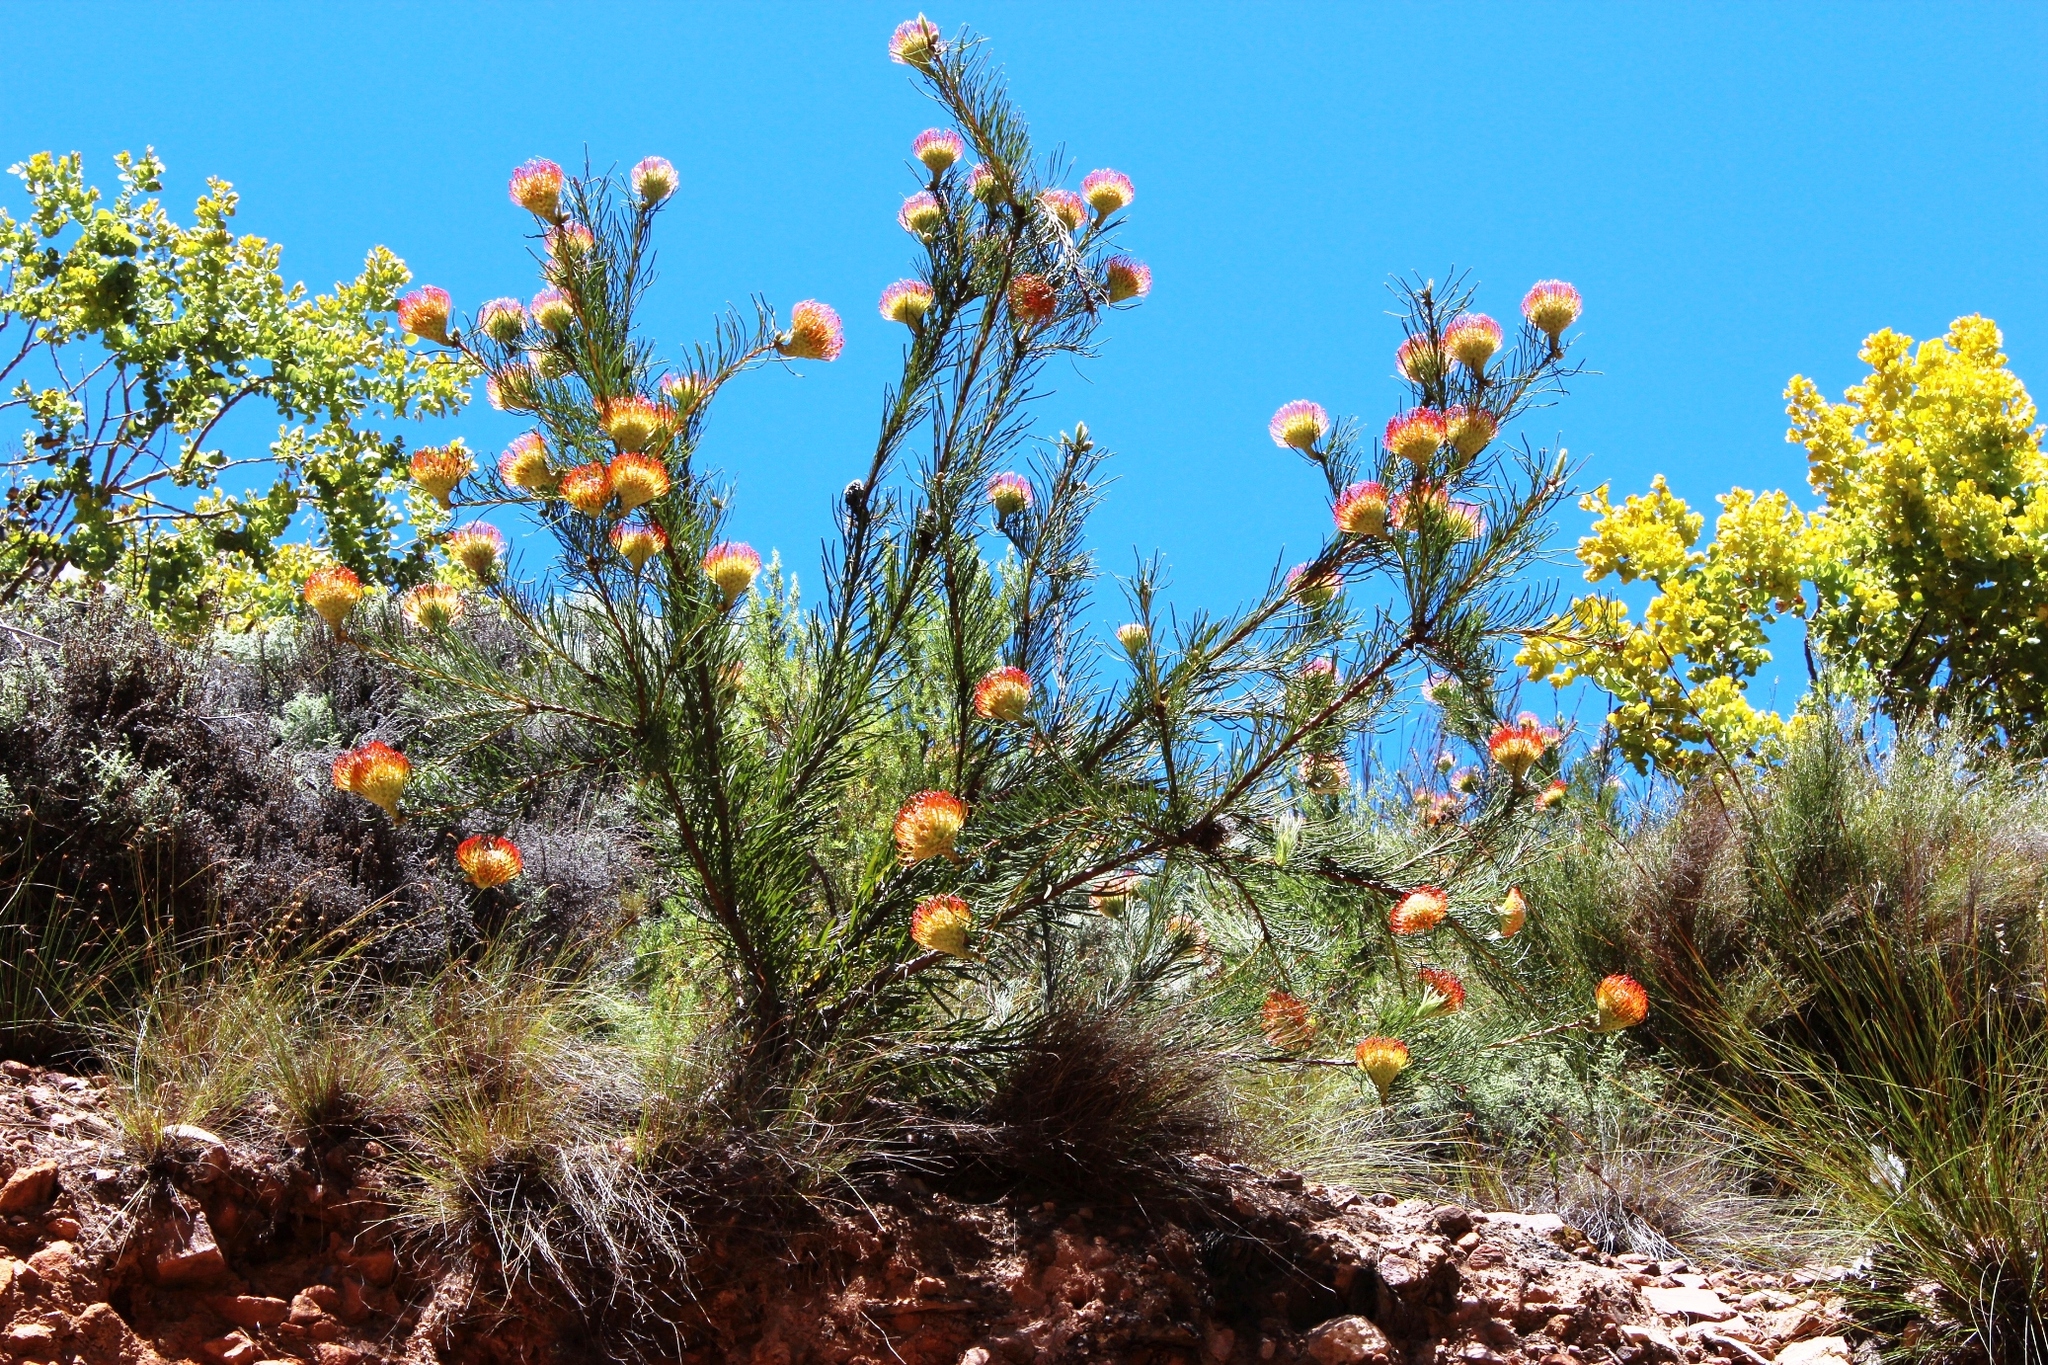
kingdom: Plantae
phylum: Tracheophyta
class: Magnoliopsida
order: Proteales
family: Proteaceae
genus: Leucospermum
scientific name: Leucospermum lineare
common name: Needle-leaf pincushion
